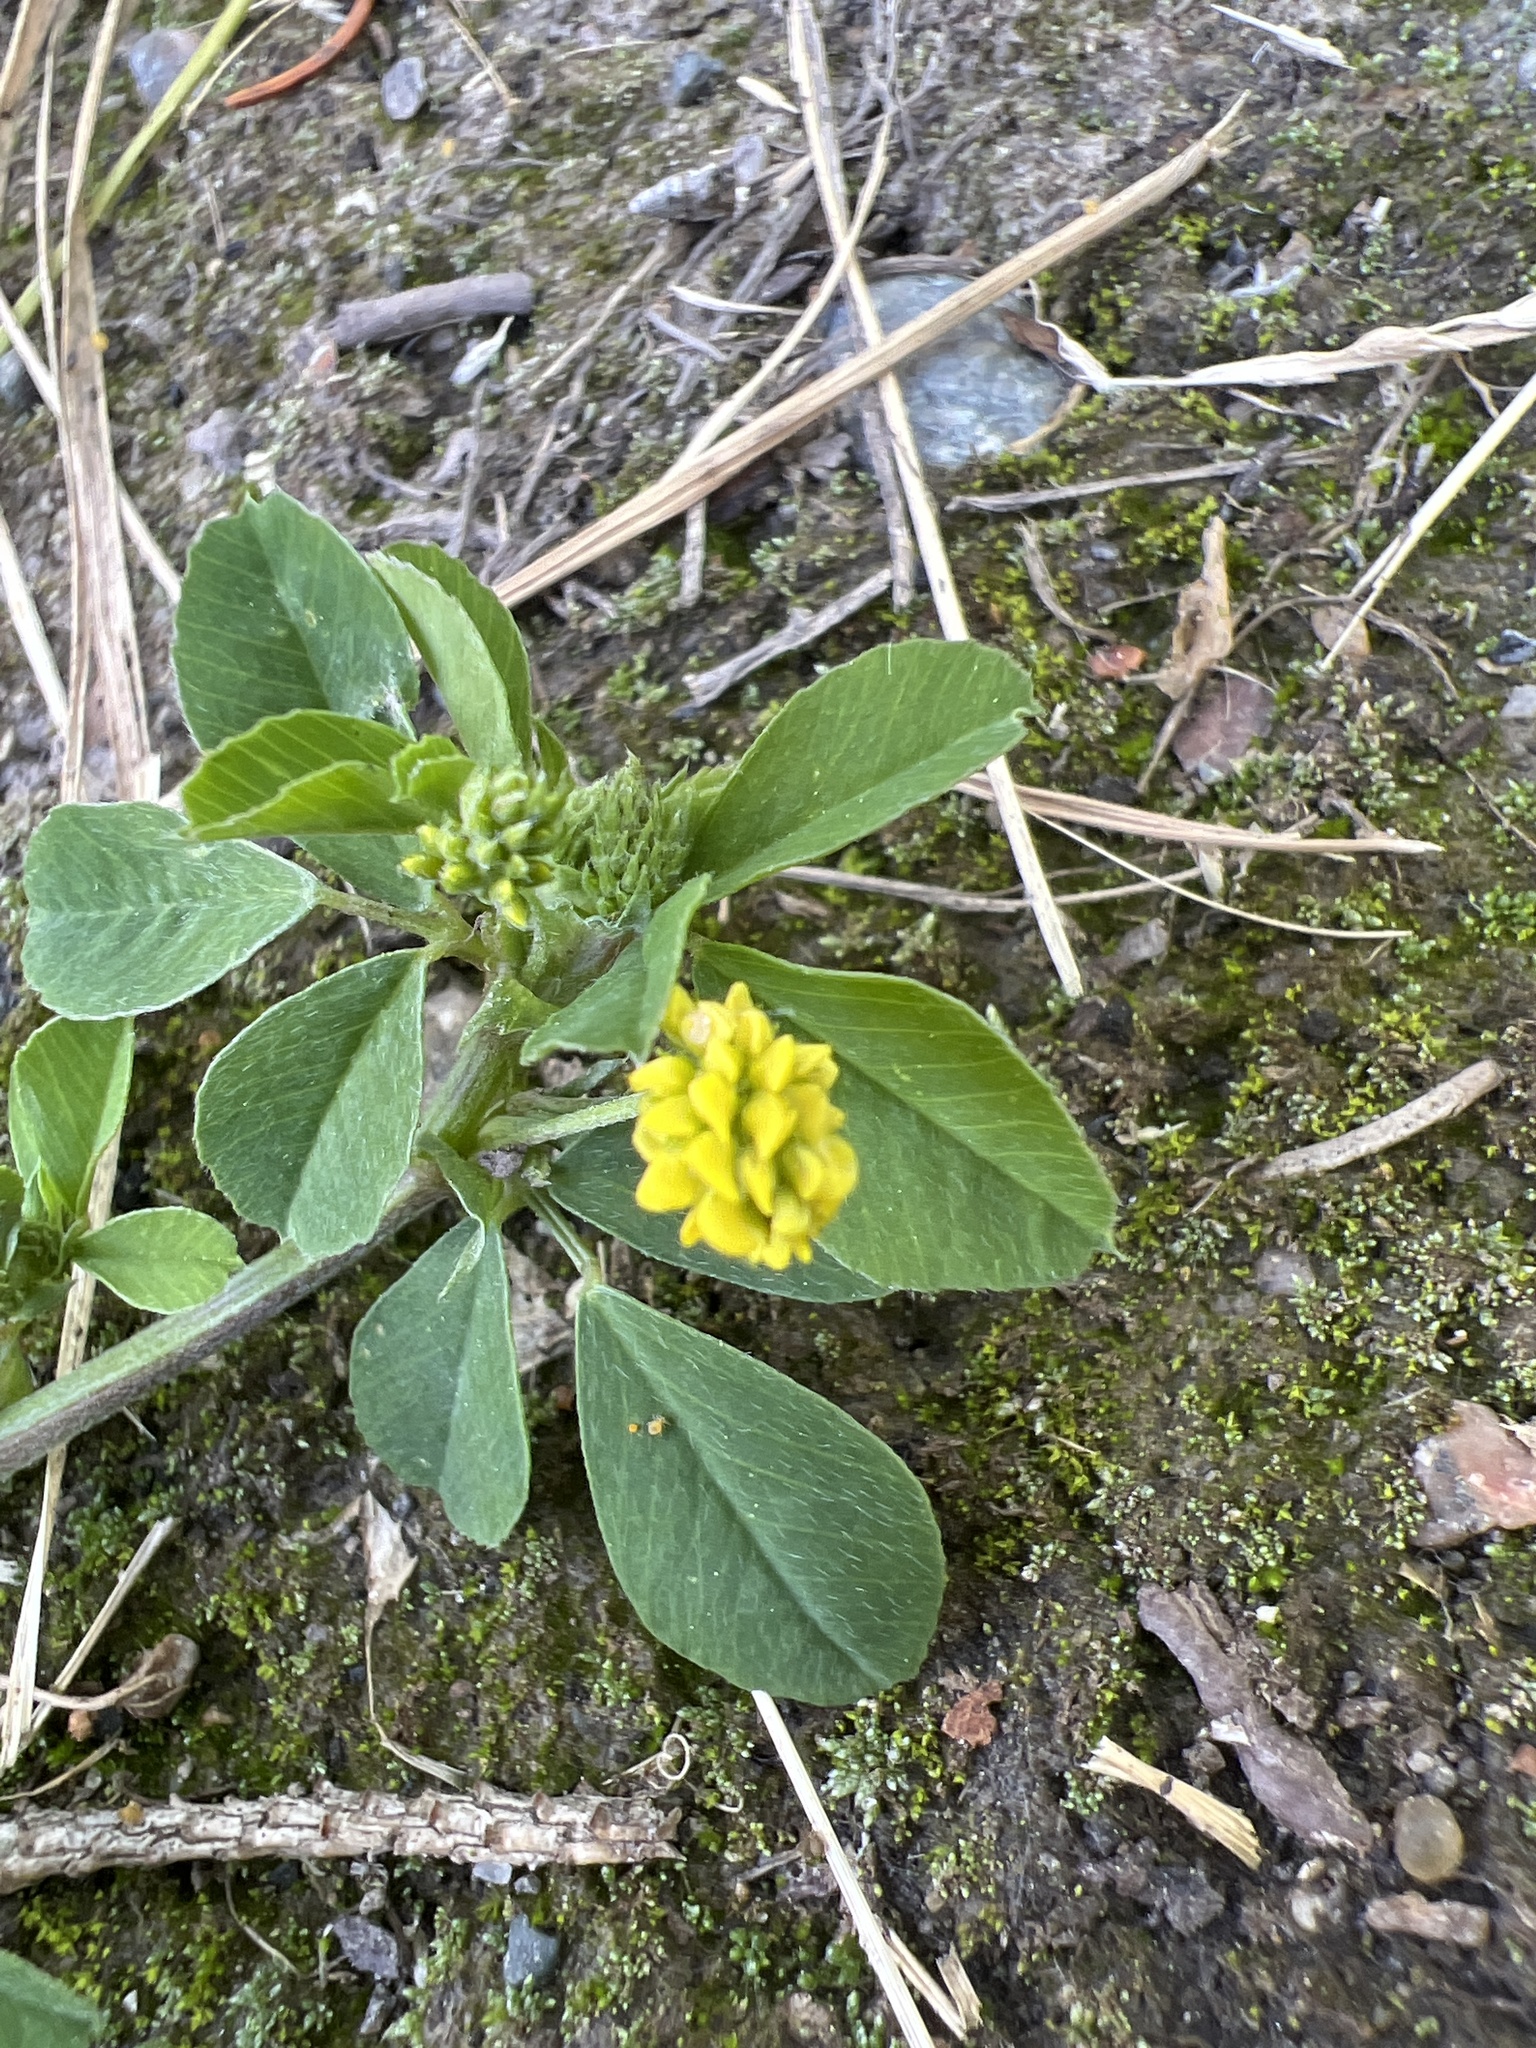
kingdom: Plantae
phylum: Tracheophyta
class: Magnoliopsida
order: Fabales
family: Fabaceae
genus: Medicago
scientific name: Medicago lupulina
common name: Black medick
